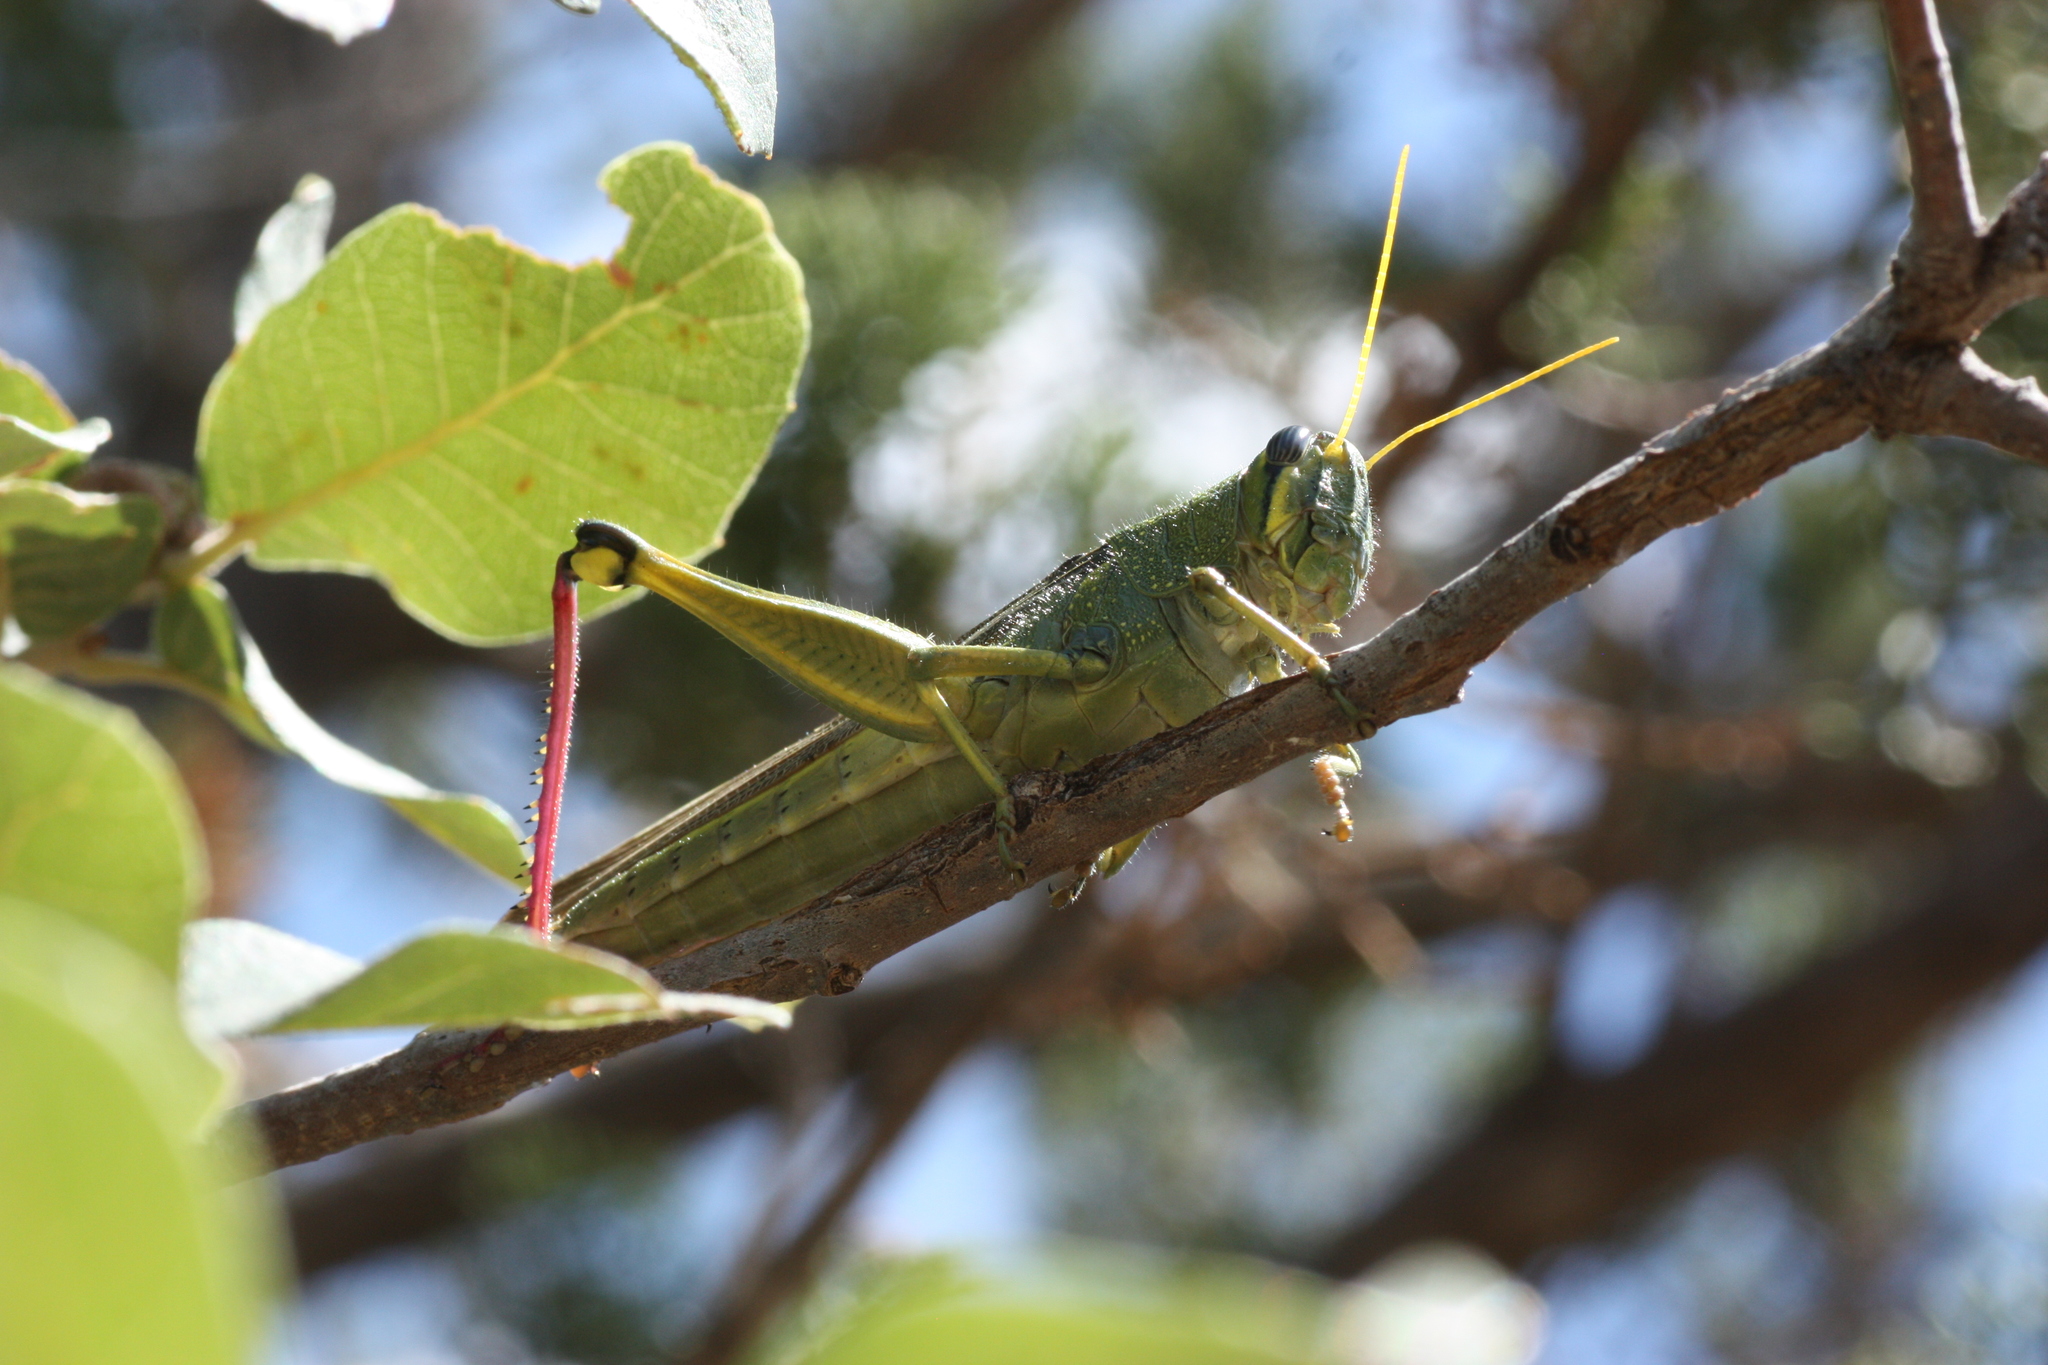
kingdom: Animalia
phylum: Arthropoda
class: Insecta
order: Orthoptera
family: Acrididae
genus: Schistocerca
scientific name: Schistocerca lineata
